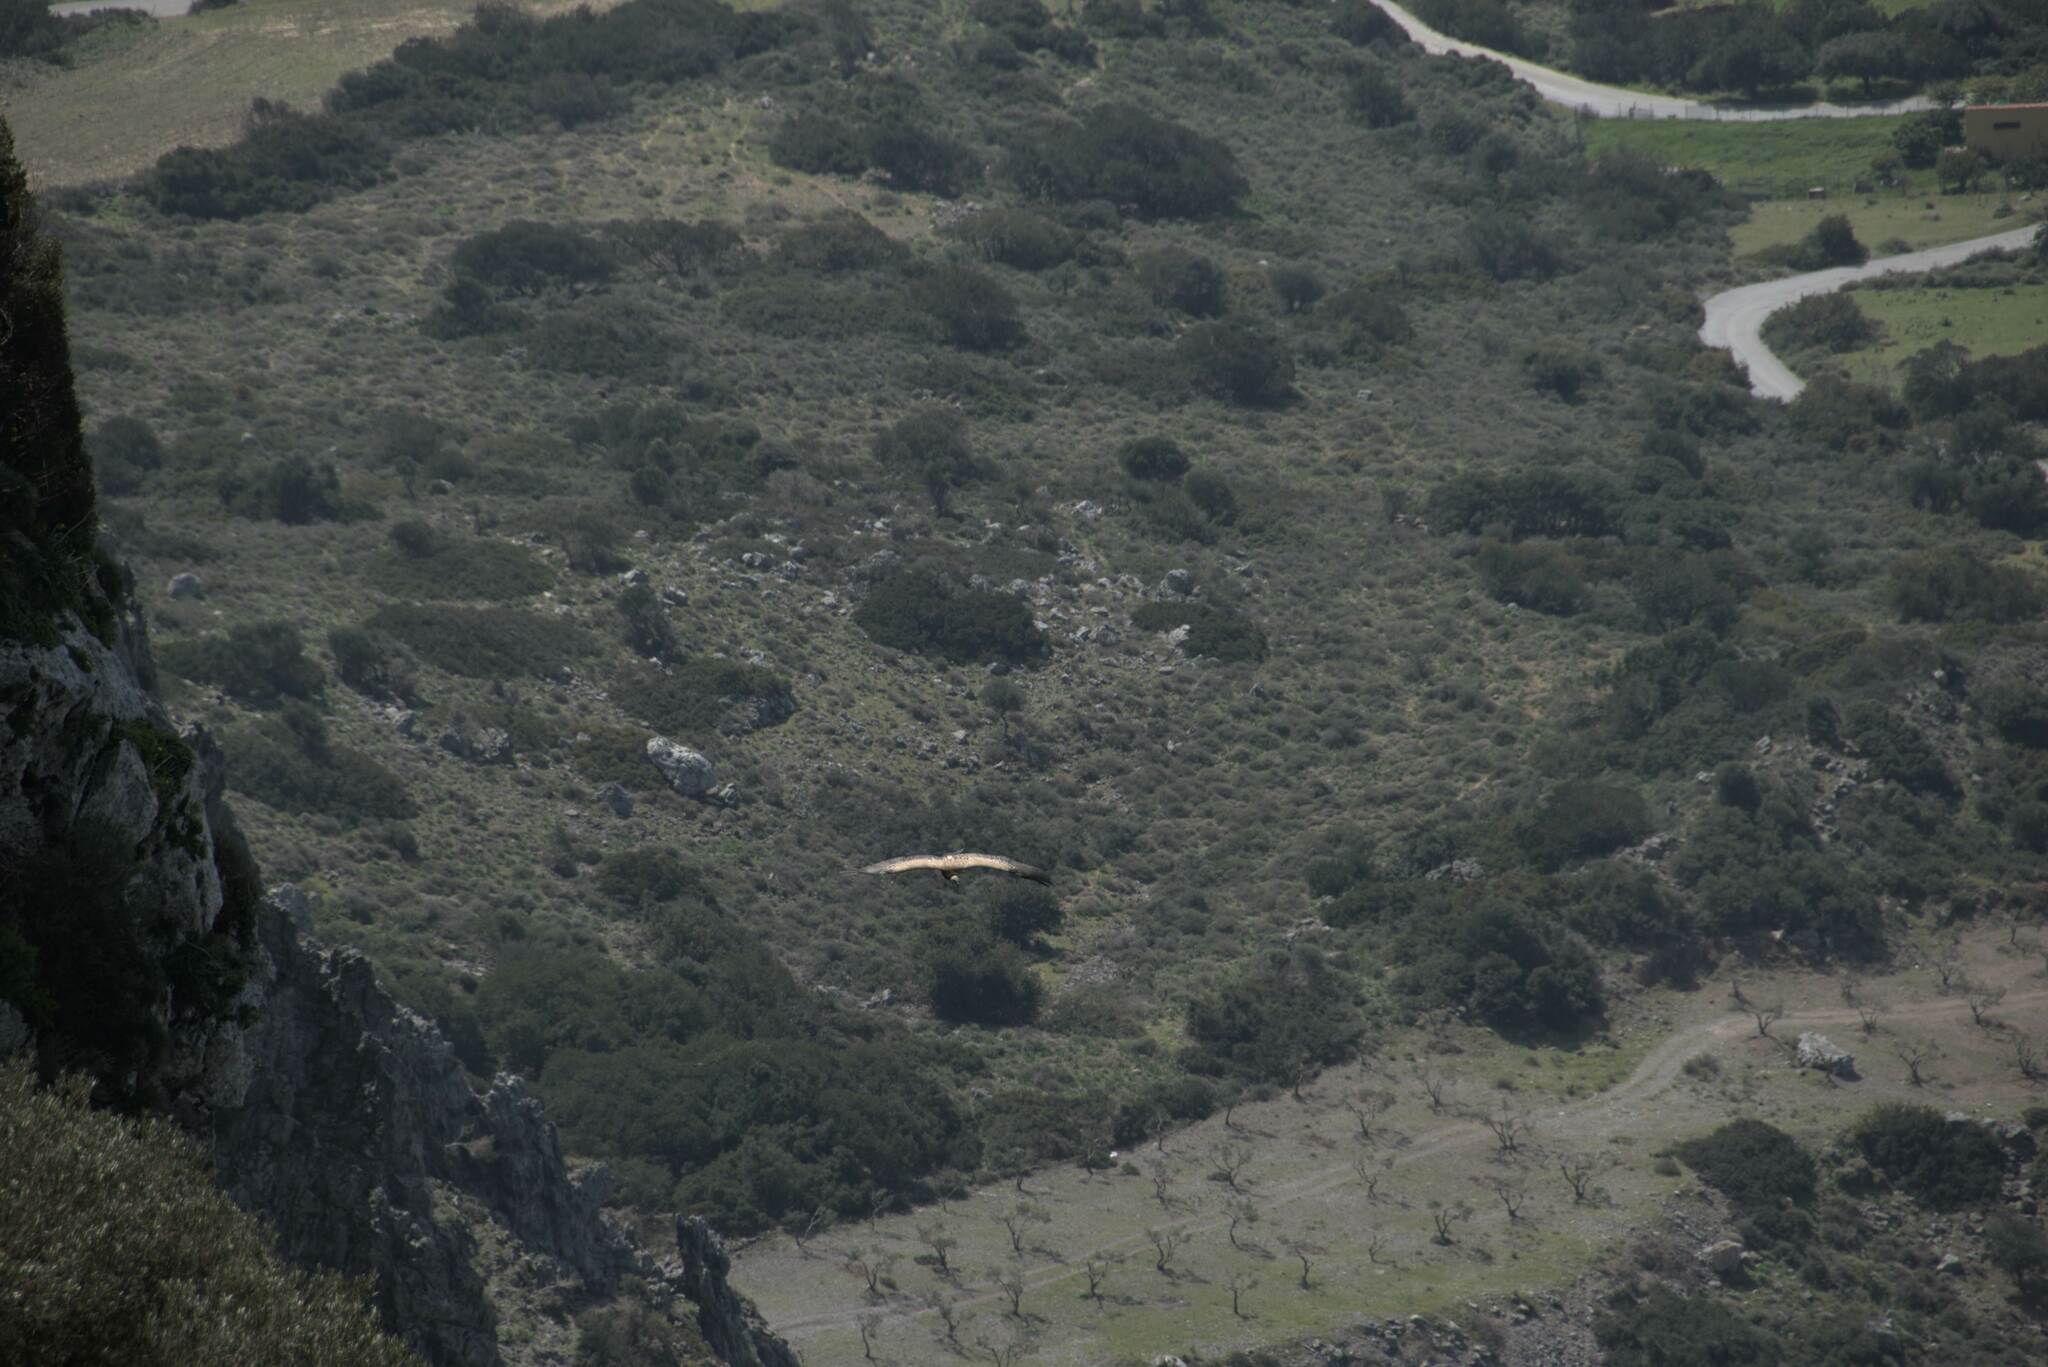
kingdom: Animalia
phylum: Chordata
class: Aves
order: Accipitriformes
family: Accipitridae
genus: Gyps
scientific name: Gyps fulvus
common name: Griffon vulture
